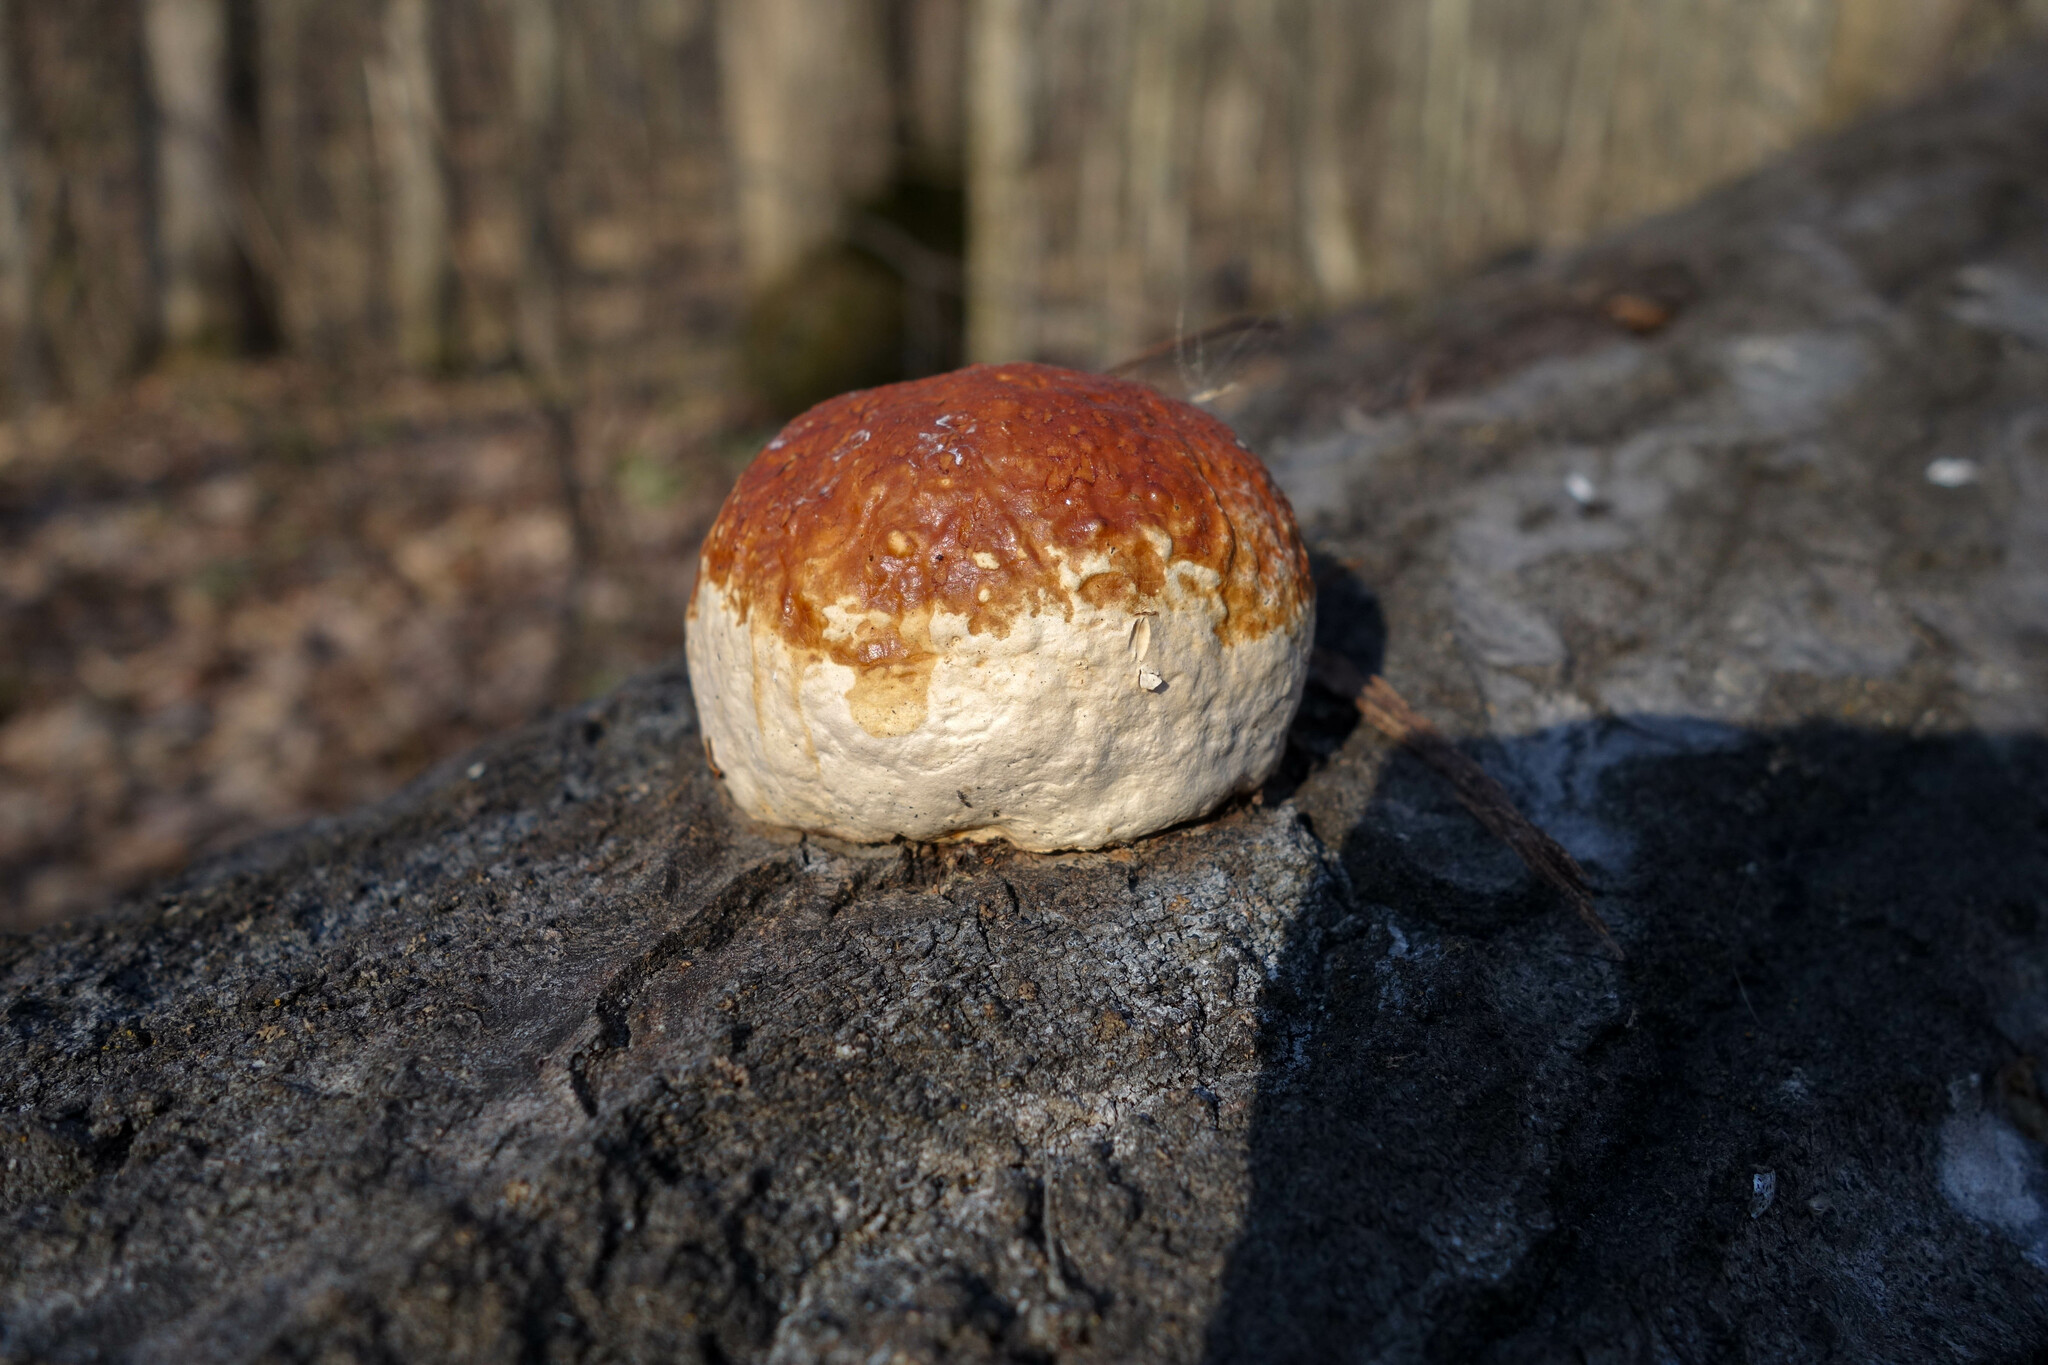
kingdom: Fungi
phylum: Basidiomycota
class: Agaricomycetes
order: Polyporales
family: Fomitopsidaceae
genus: Fomitopsis
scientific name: Fomitopsis pinicola
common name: Red-belted bracket
